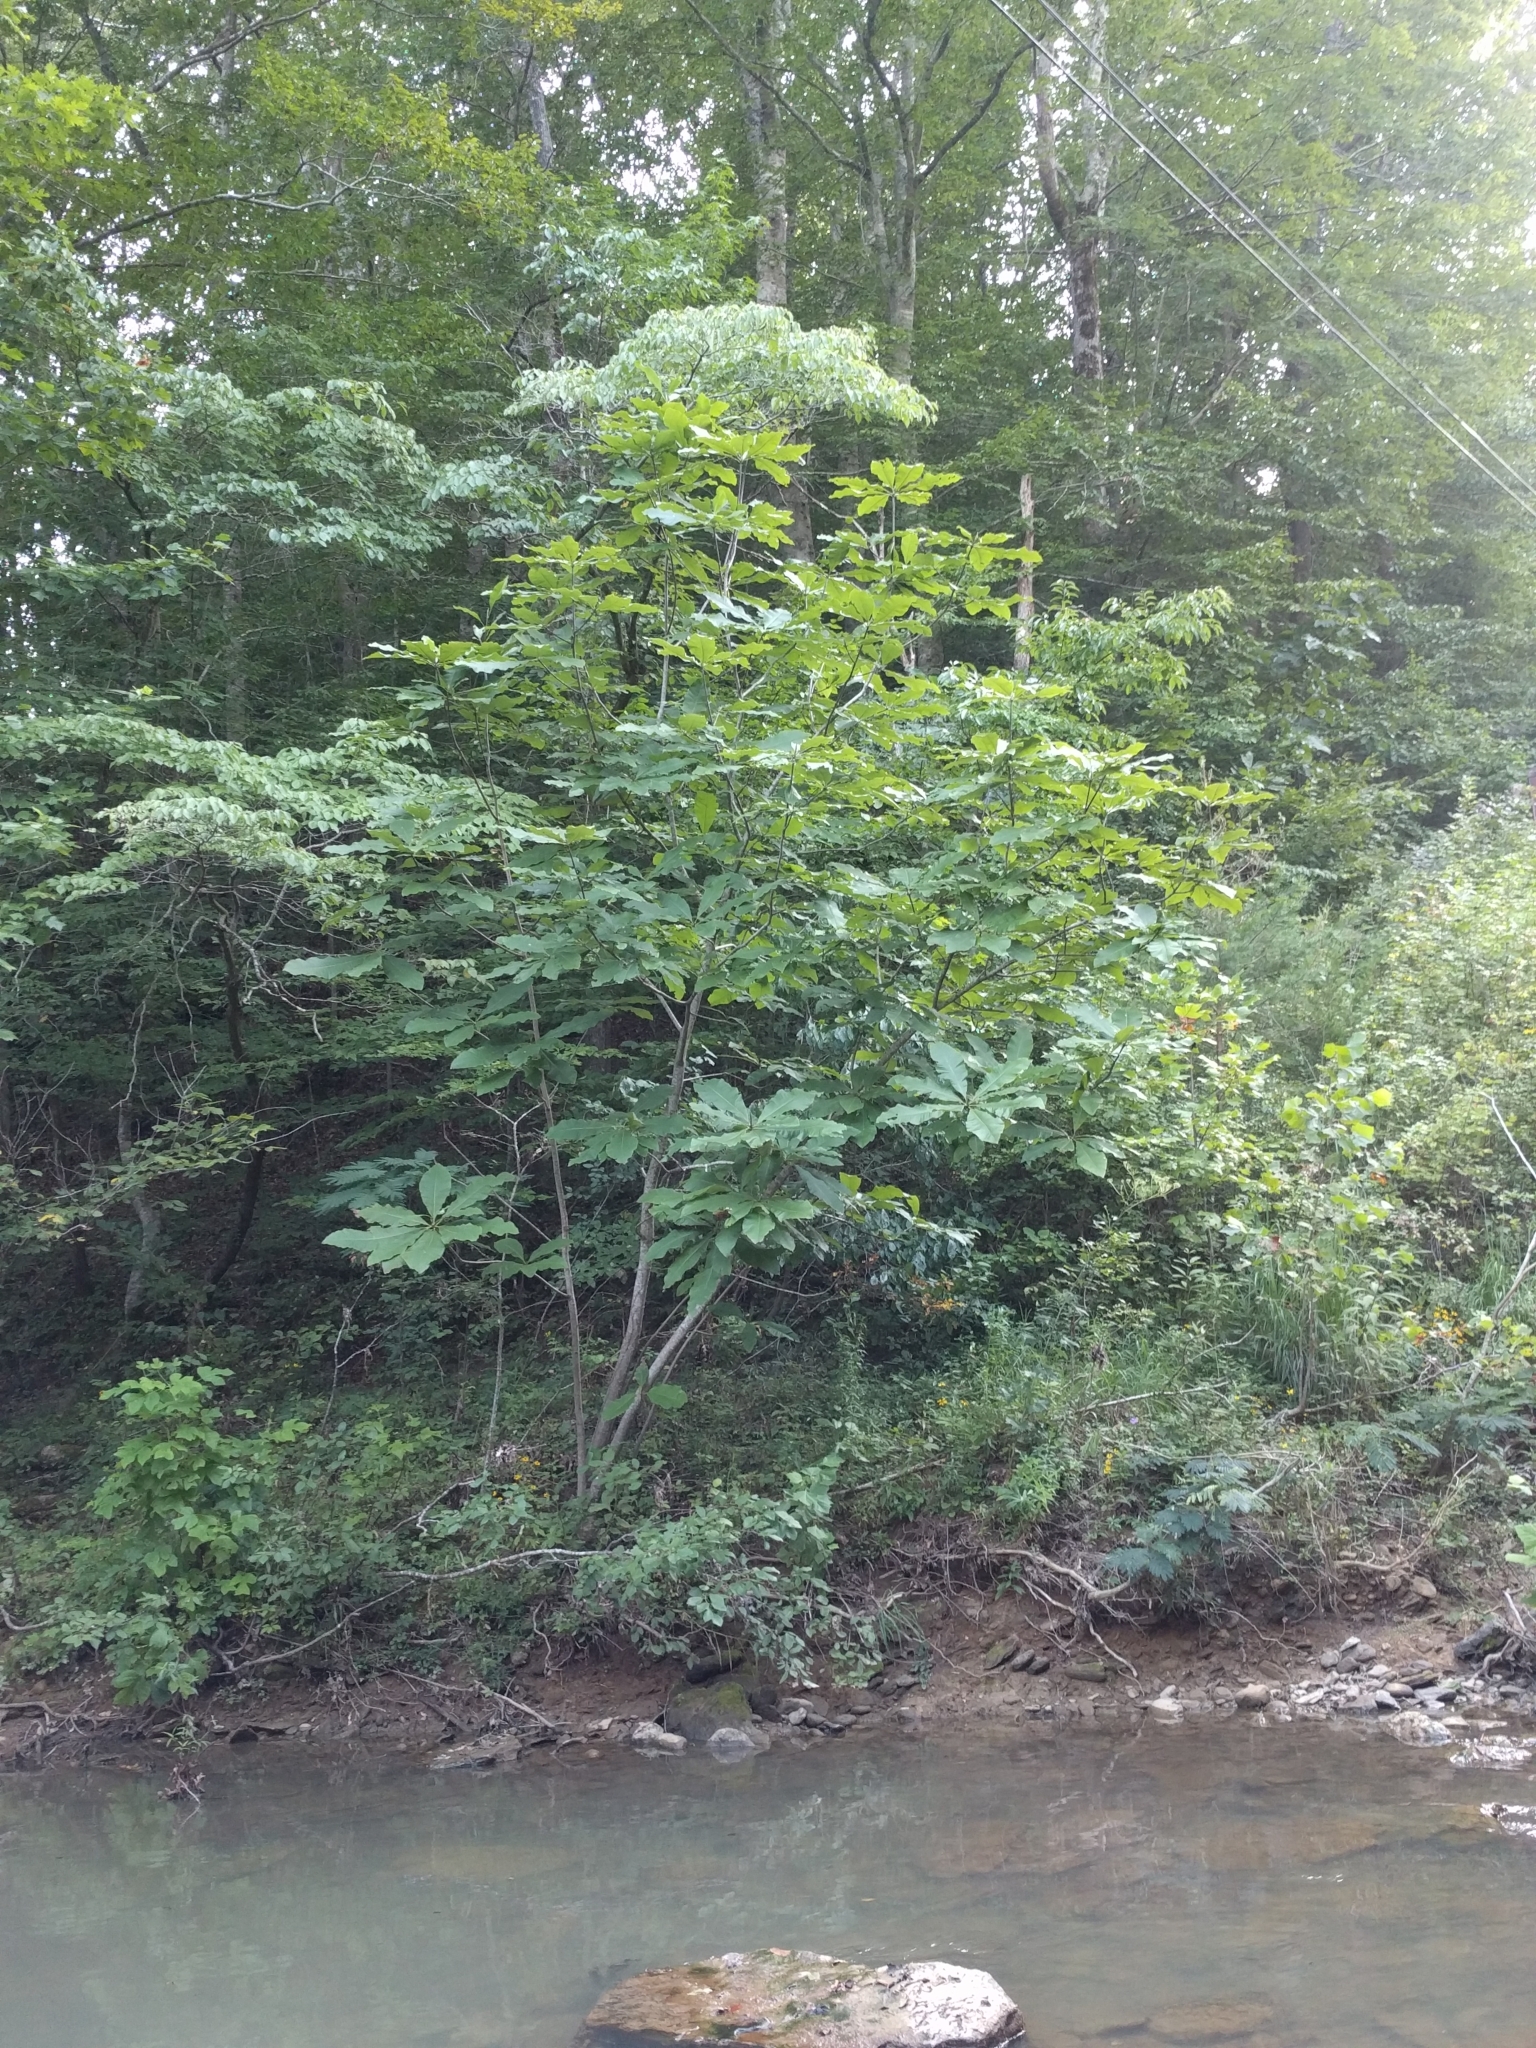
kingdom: Plantae
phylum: Tracheophyta
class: Magnoliopsida
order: Magnoliales
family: Magnoliaceae
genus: Magnolia
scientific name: Magnolia tripetala
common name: Umbrella magnolia
